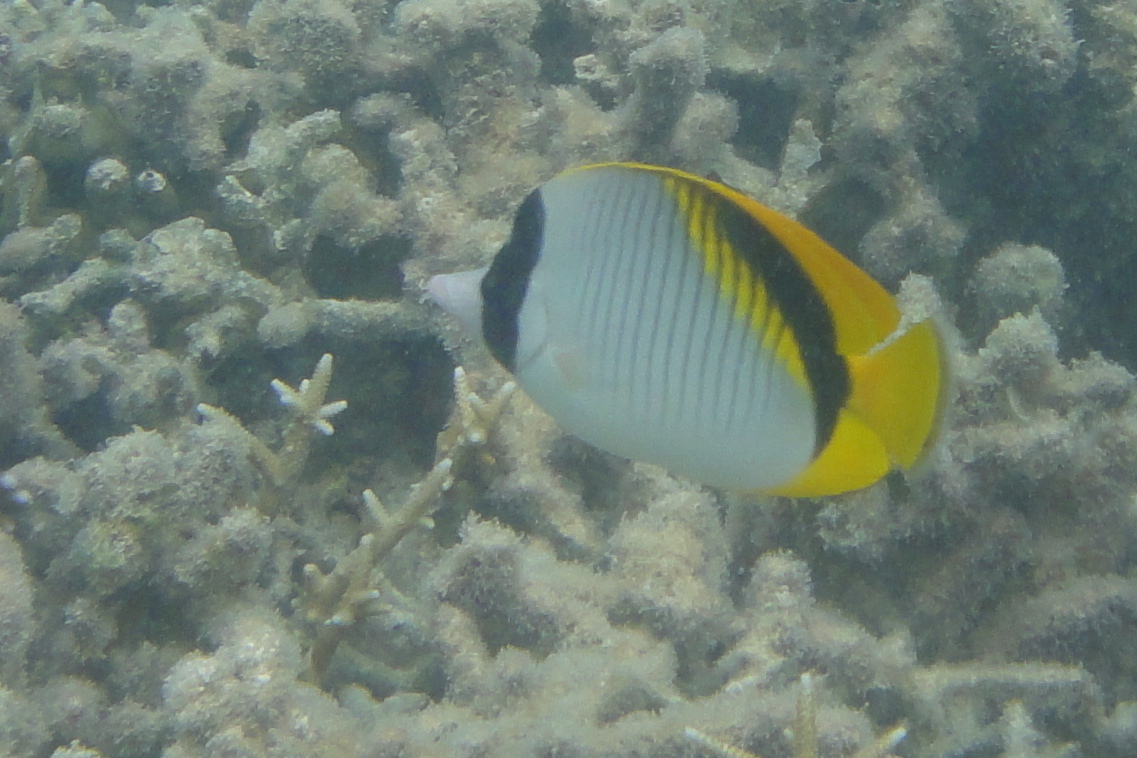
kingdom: Animalia
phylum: Chordata
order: Perciformes
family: Chaetodontidae
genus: Chaetodon
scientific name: Chaetodon lineolatus
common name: Lined butterflyfish
